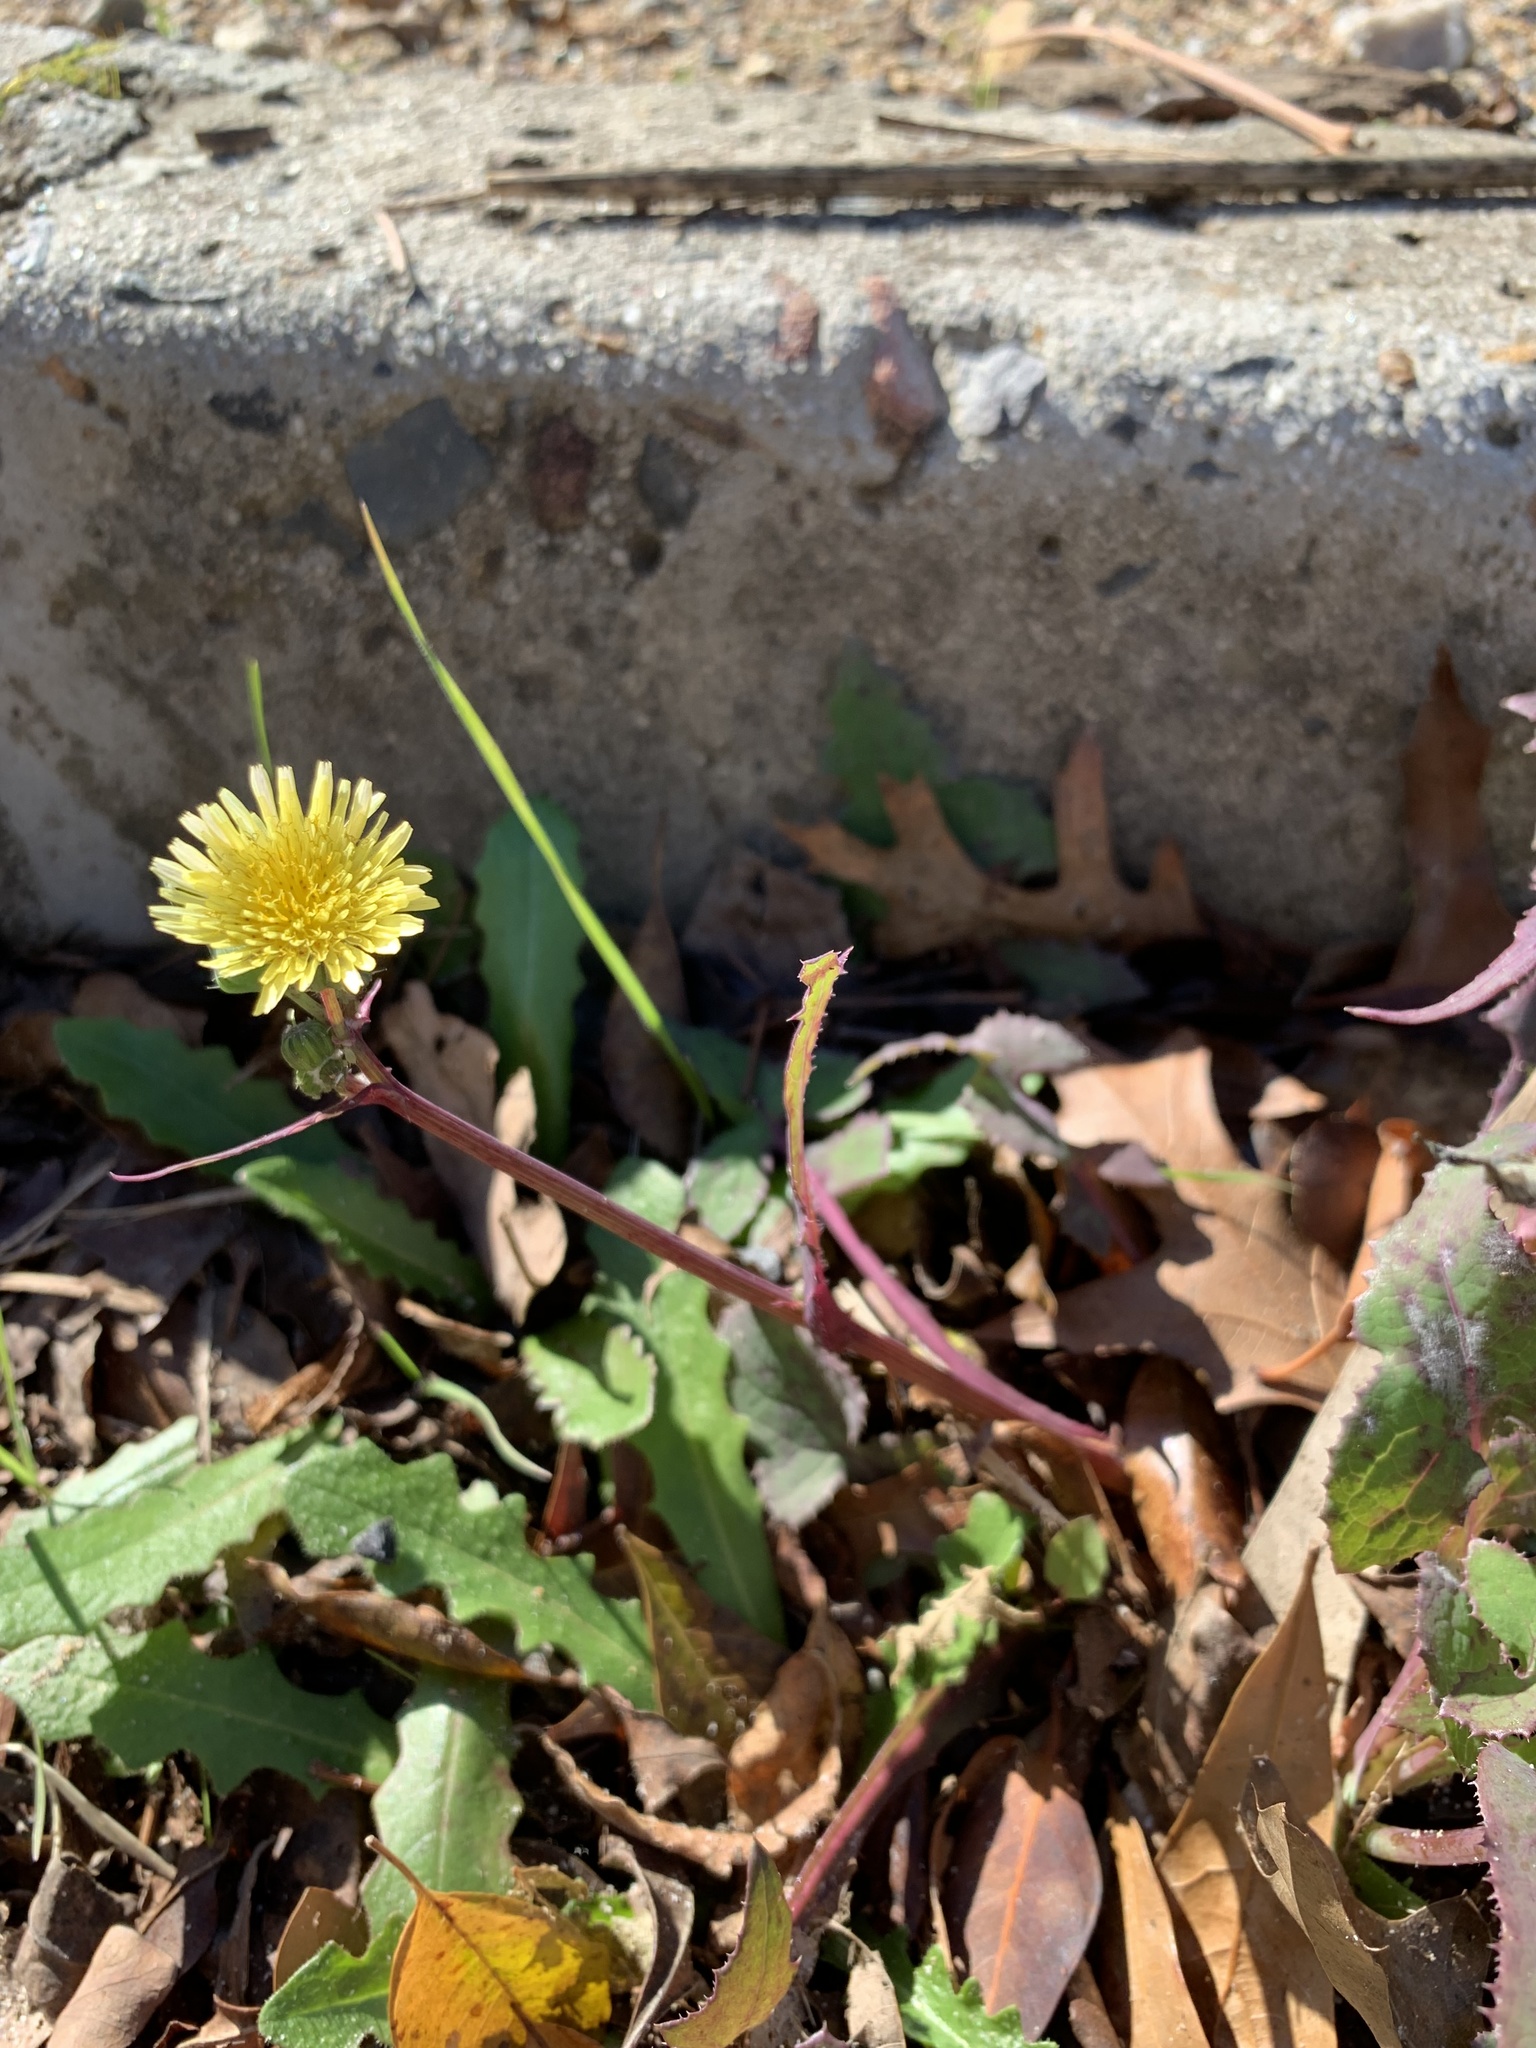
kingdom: Plantae
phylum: Tracheophyta
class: Magnoliopsida
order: Asterales
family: Asteraceae
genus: Sonchus
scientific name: Sonchus oleraceus
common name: Common sowthistle
